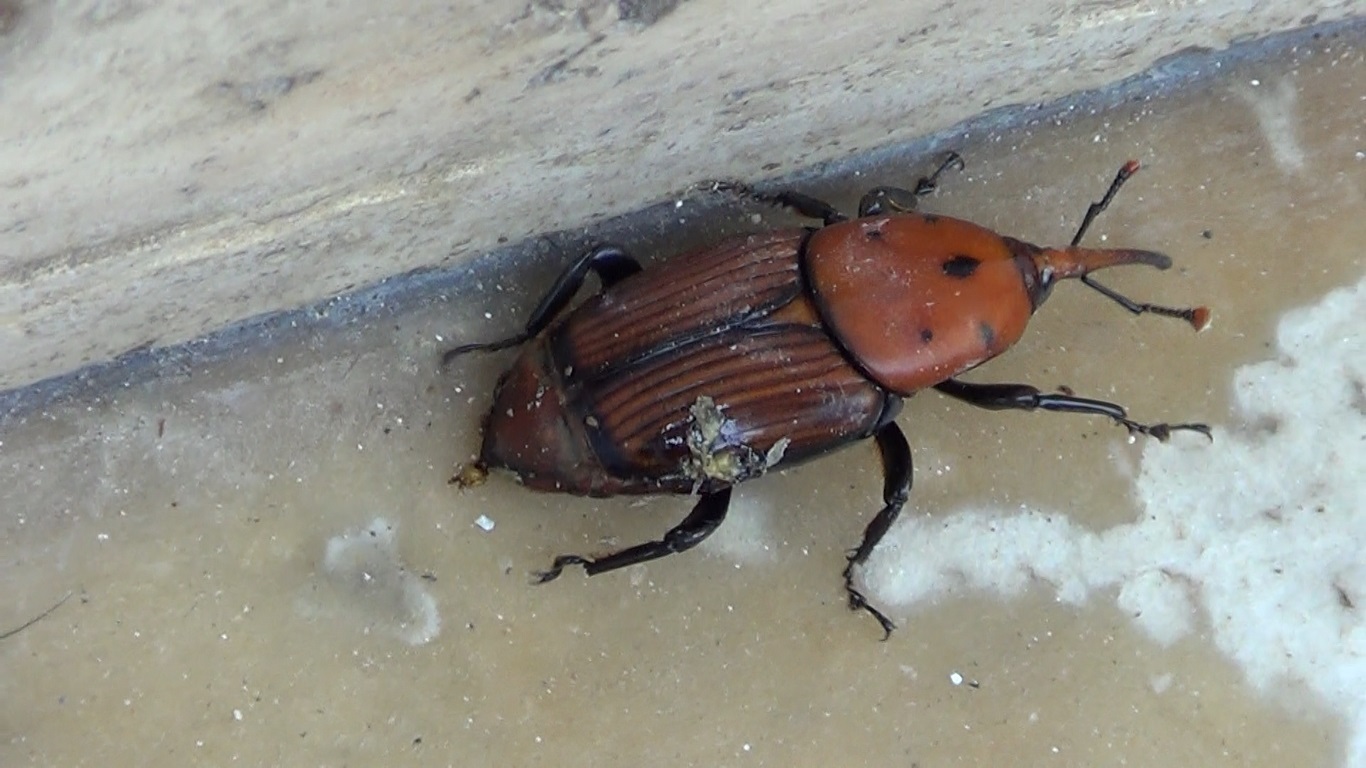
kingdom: Animalia
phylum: Arthropoda
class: Insecta
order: Coleoptera
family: Dryophthoridae
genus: Rhynchophorus
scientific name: Rhynchophorus ferrugineus
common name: Red palm weevil
